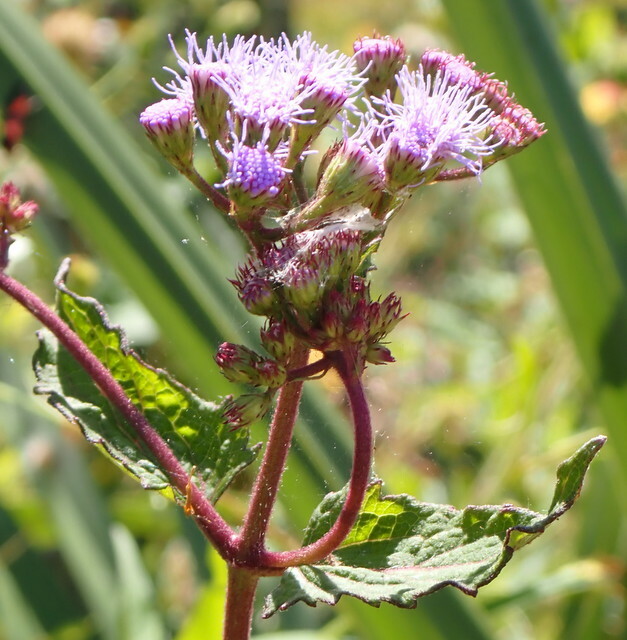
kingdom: Plantae
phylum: Tracheophyta
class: Magnoliopsida
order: Asterales
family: Asteraceae
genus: Conoclinium
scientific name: Conoclinium coelestinum
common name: Blue mistflower
